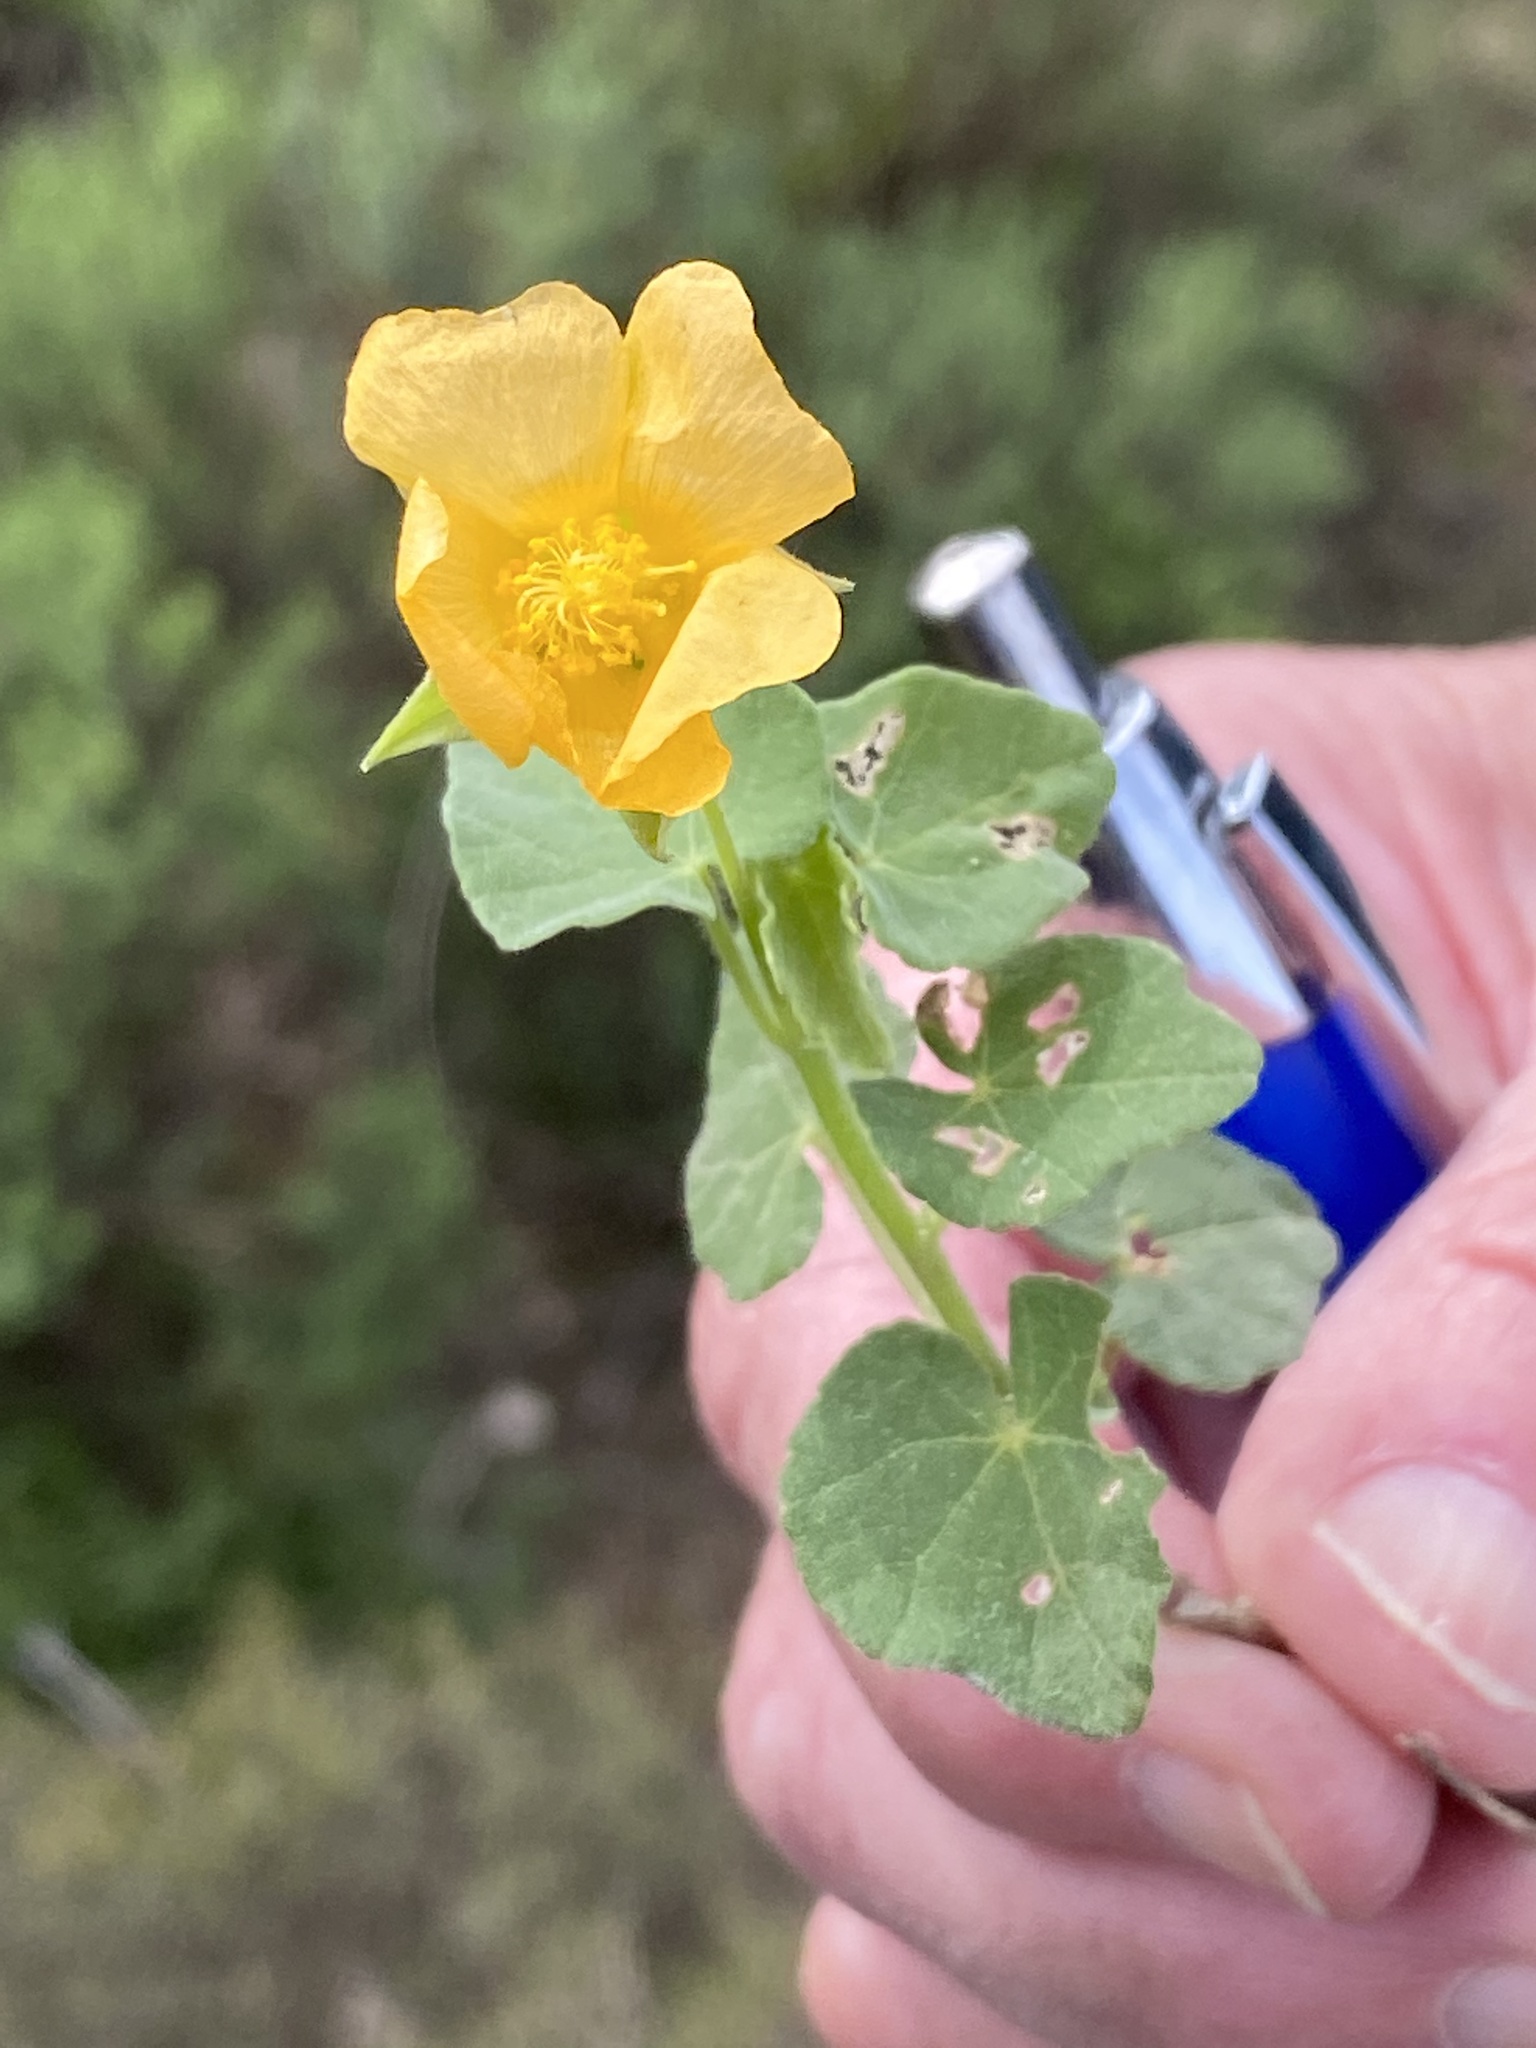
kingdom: Plantae
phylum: Tracheophyta
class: Magnoliopsida
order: Malvales
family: Malvaceae
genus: Abutilon
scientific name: Abutilon sonneratianum
